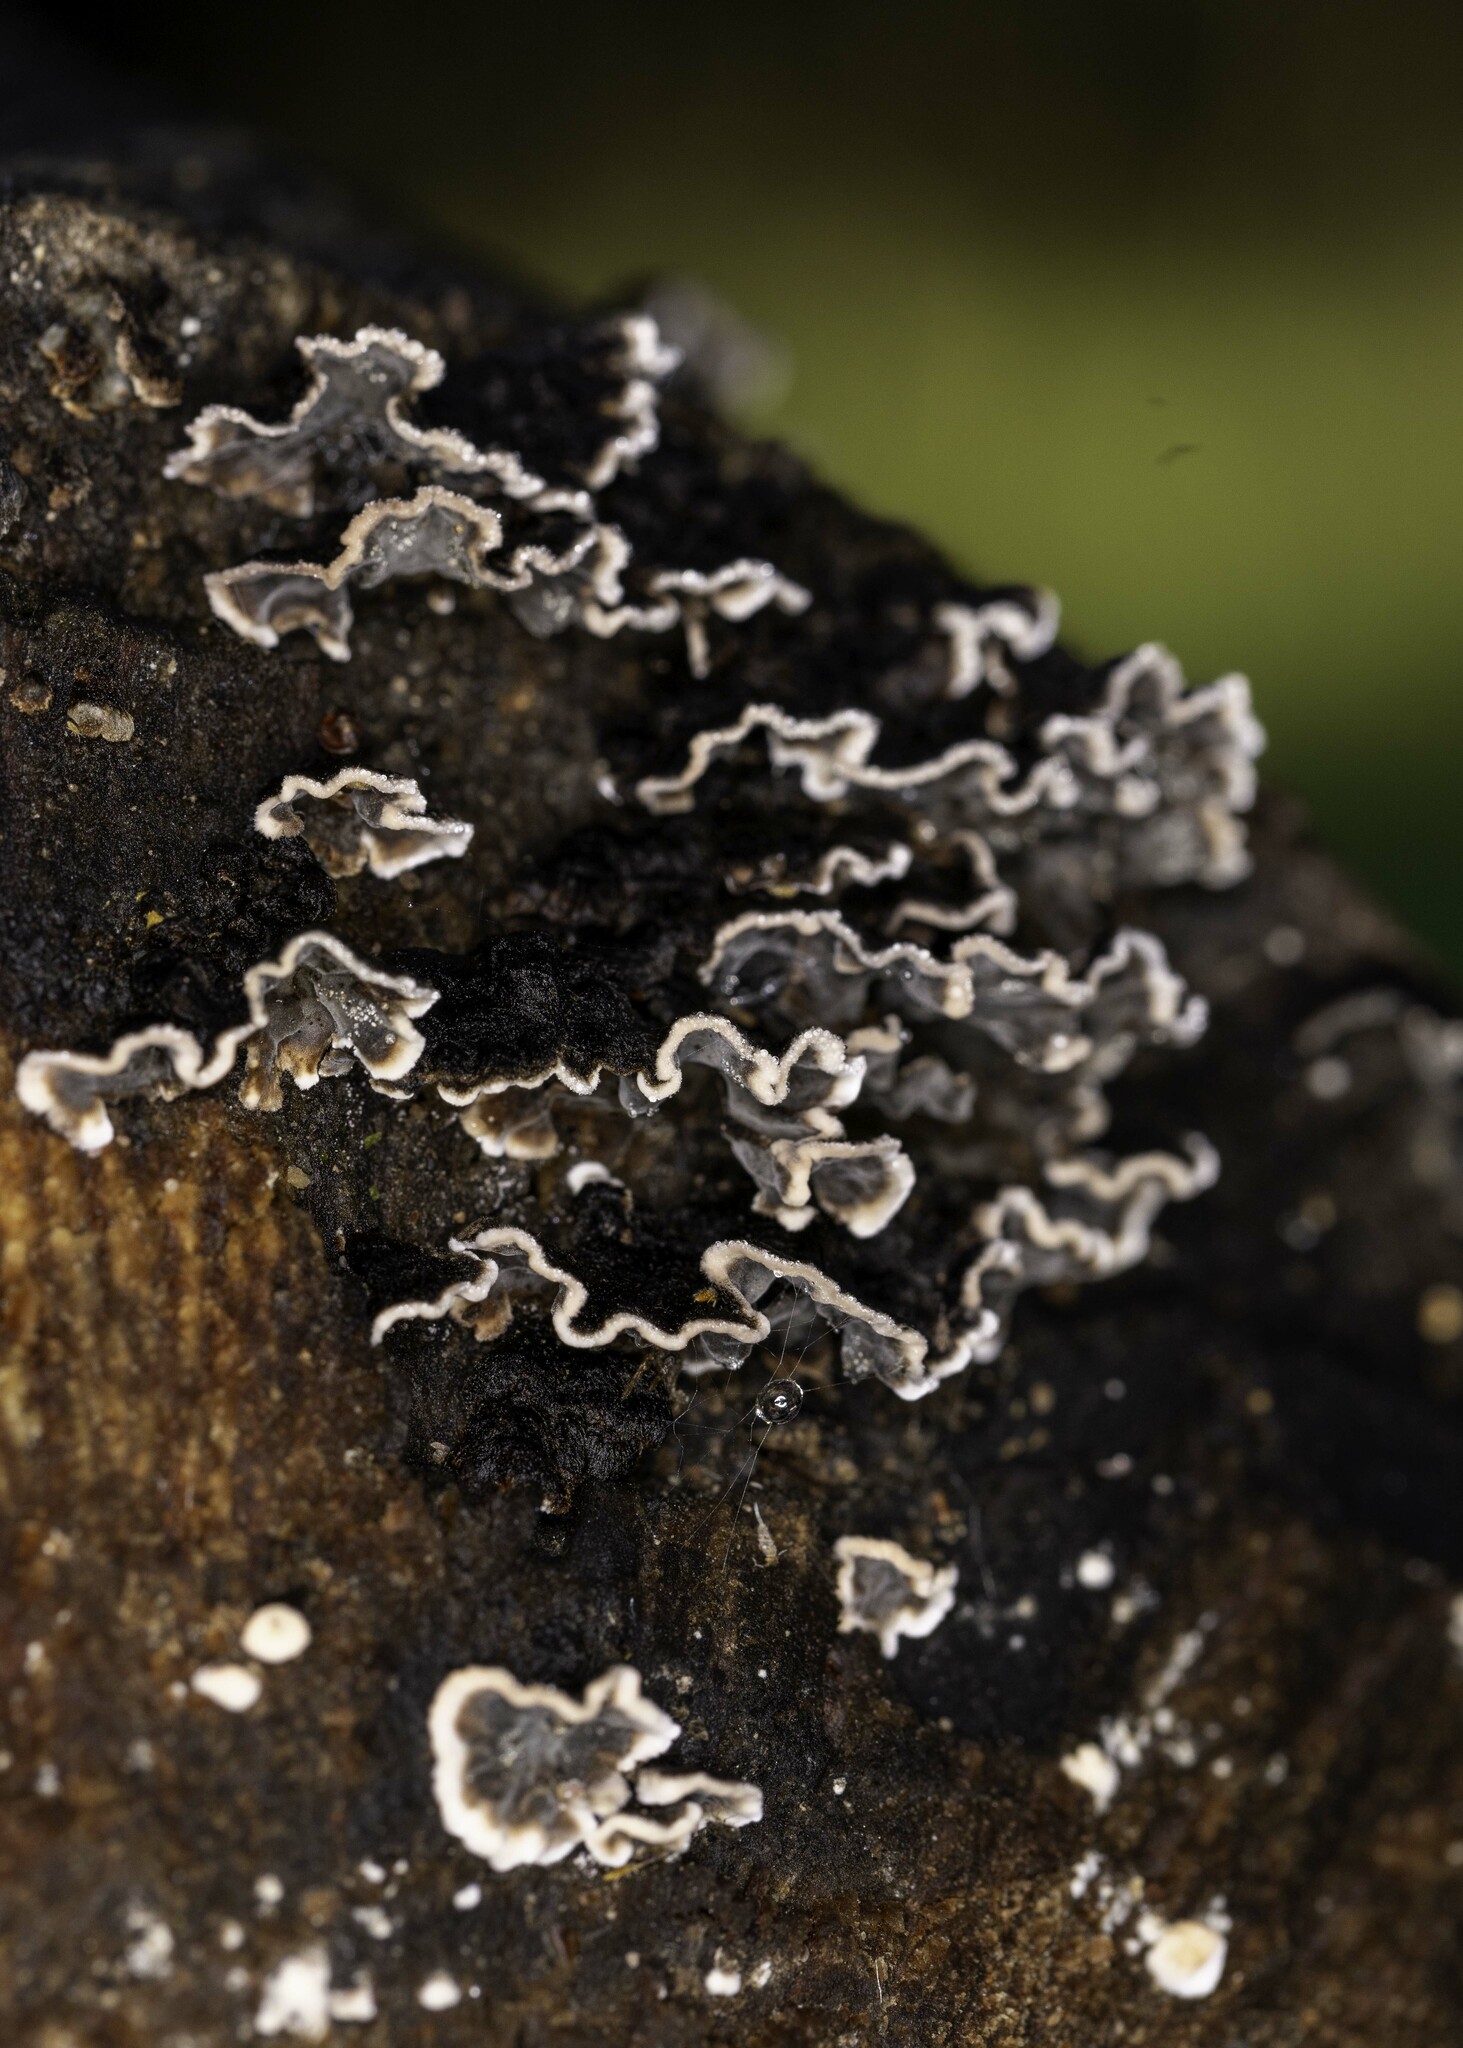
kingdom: Fungi
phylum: Basidiomycota
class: Agaricomycetes
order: Russulales
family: Peniophoraceae
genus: Peniophora
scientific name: Peniophora albobadia
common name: Giraffe spots
